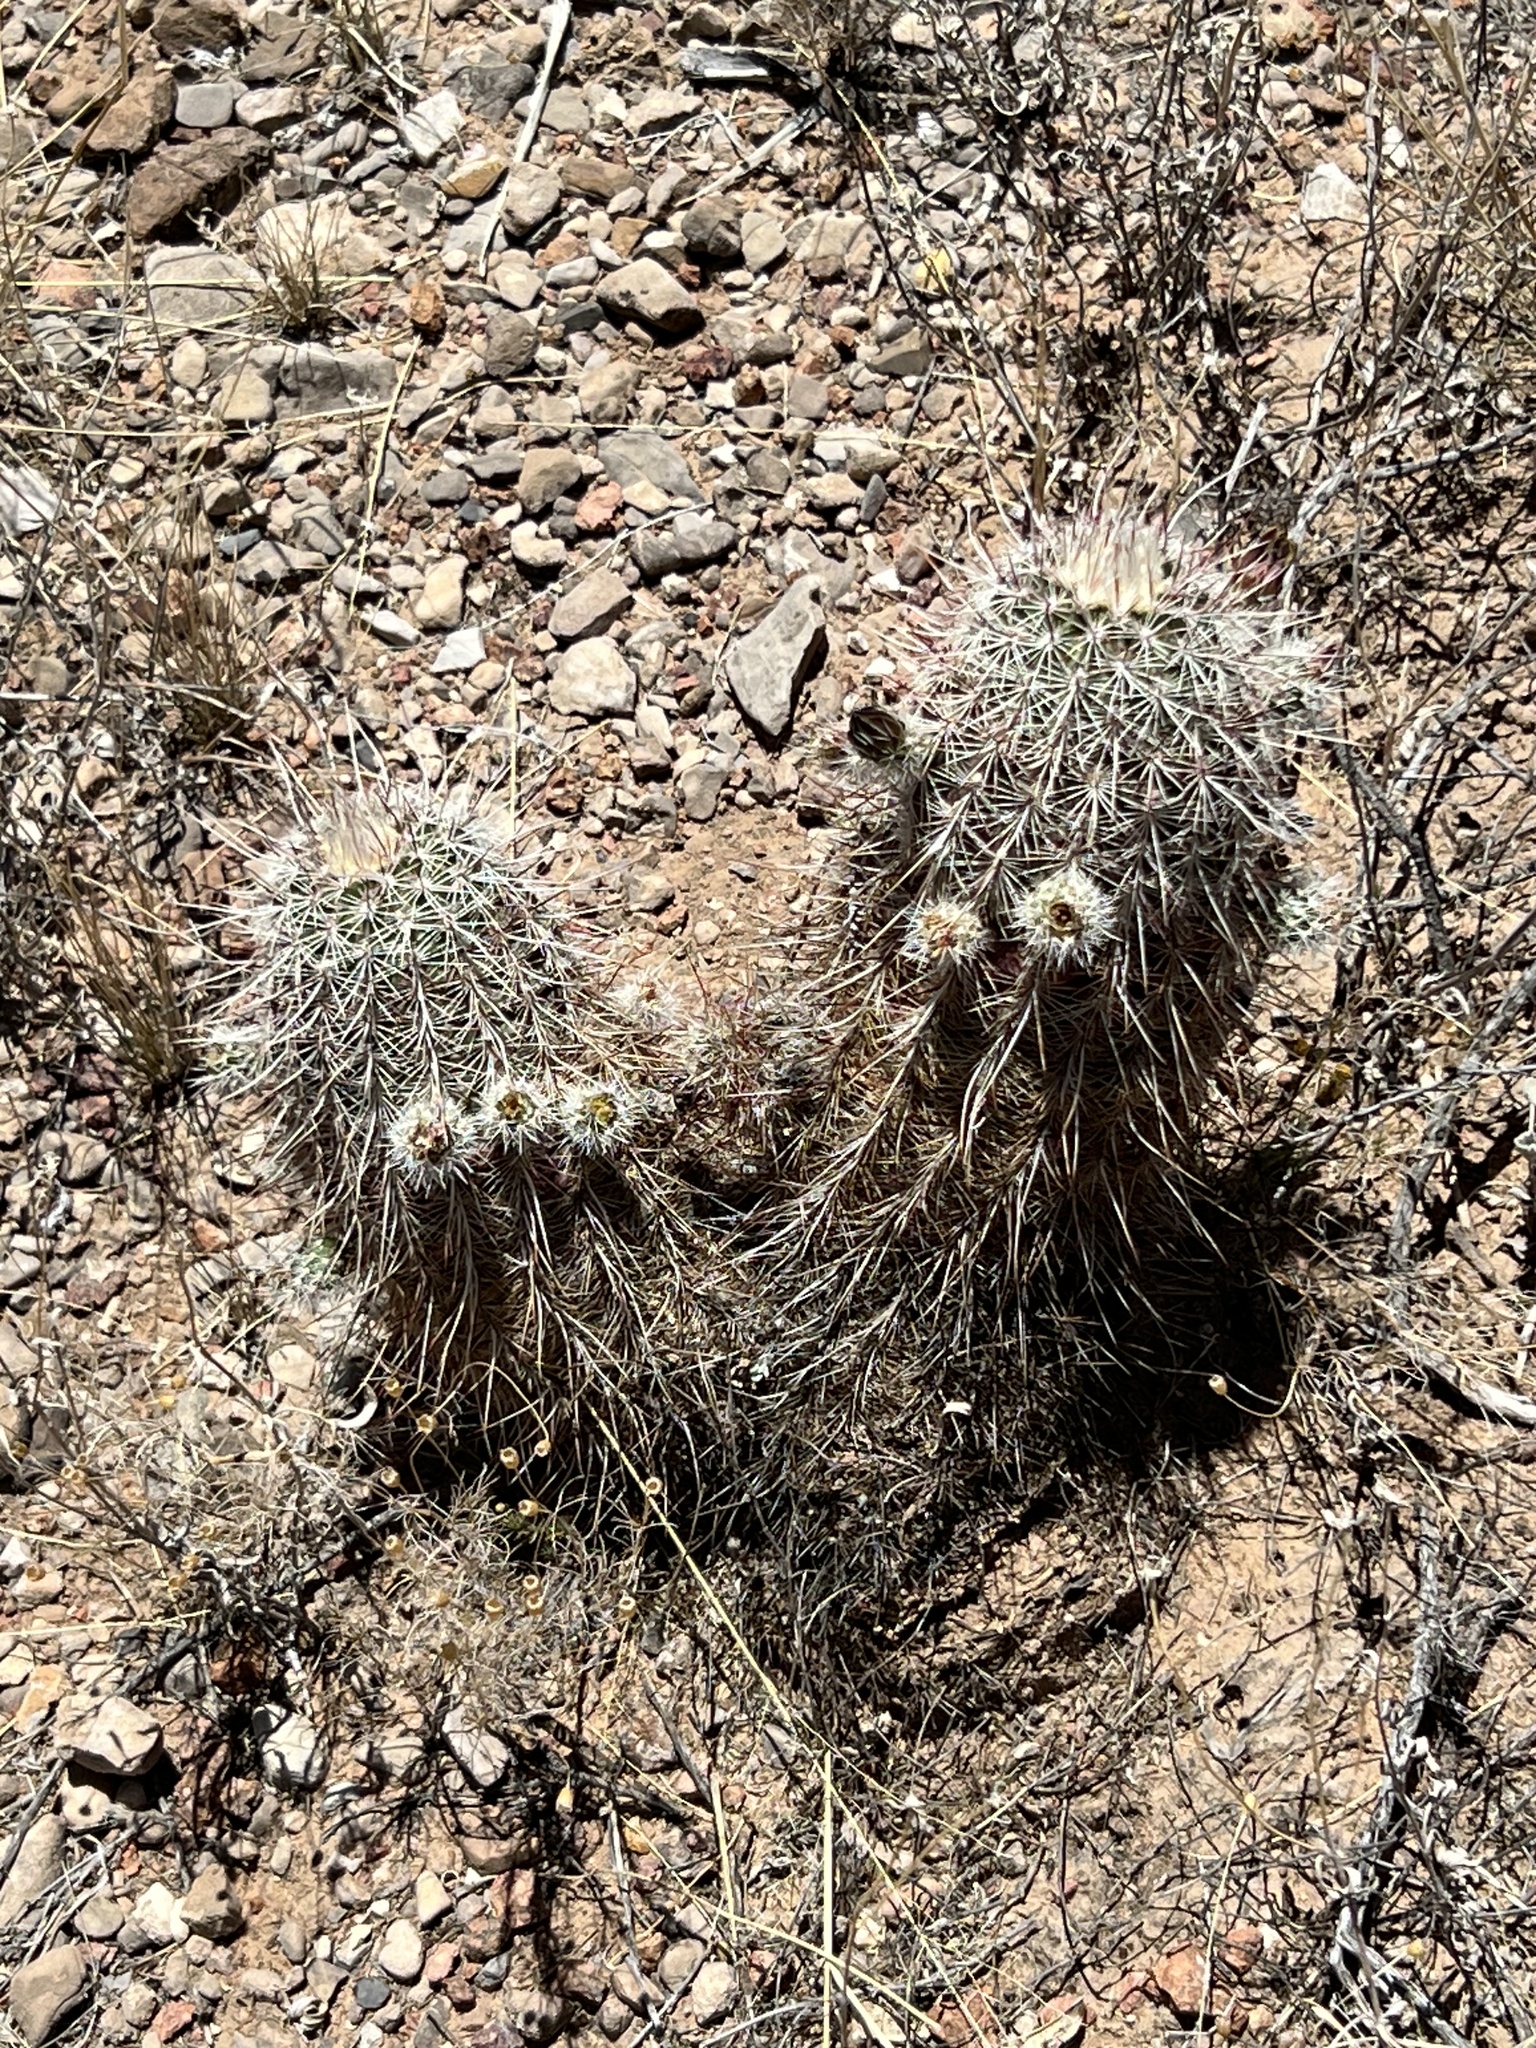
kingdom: Plantae
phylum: Tracheophyta
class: Magnoliopsida
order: Caryophyllales
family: Cactaceae
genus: Echinocereus
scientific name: Echinocereus viridiflorus
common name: Nylon hedgehog cactus
